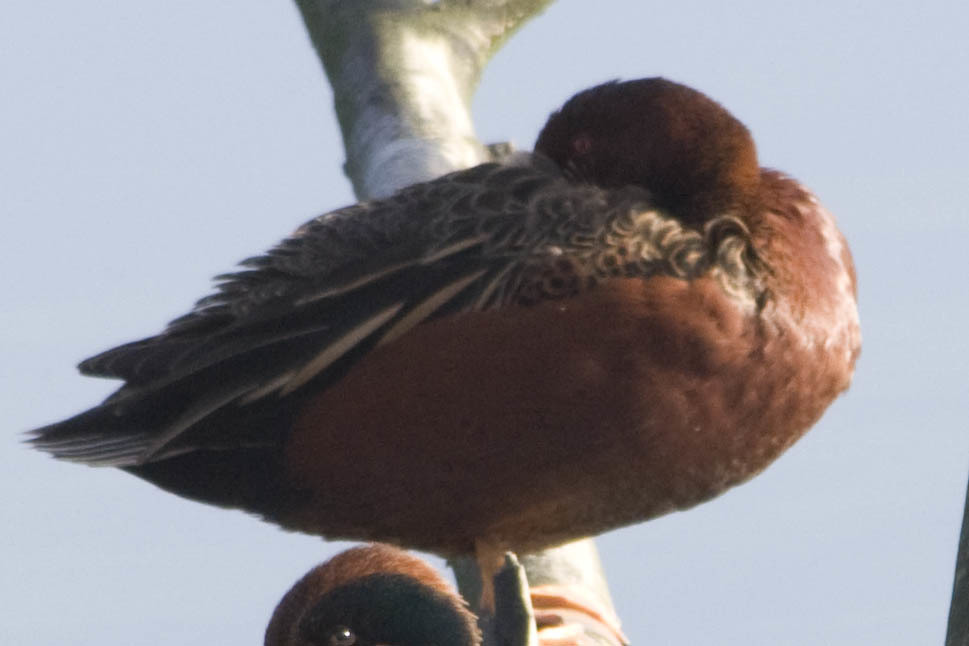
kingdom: Animalia
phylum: Chordata
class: Aves
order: Anseriformes
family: Anatidae
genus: Spatula
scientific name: Spatula cyanoptera
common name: Cinnamon teal
